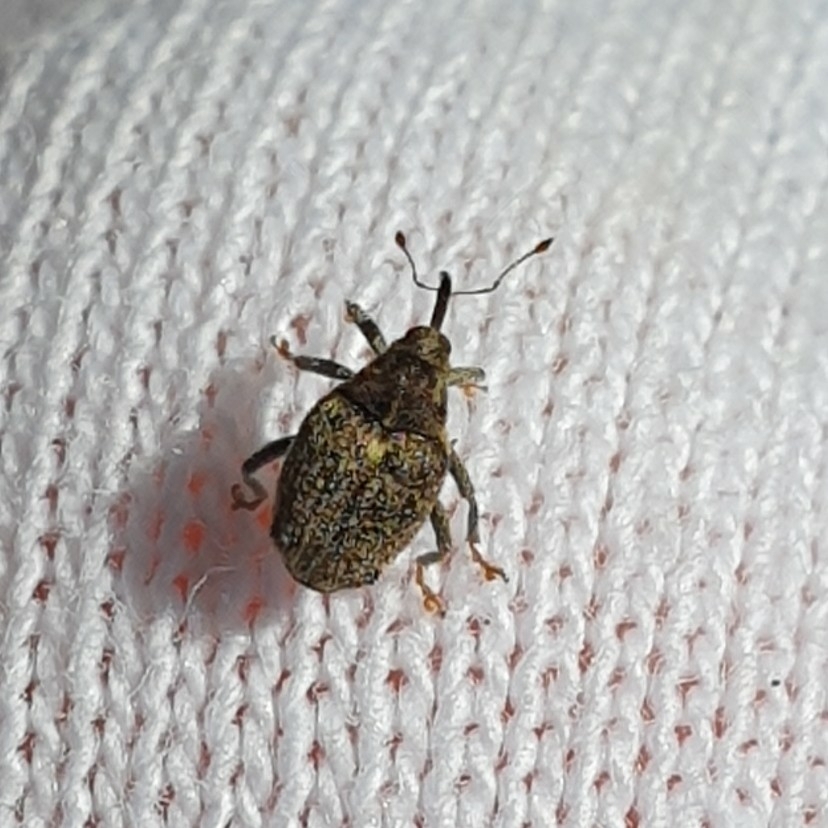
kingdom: Animalia
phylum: Arthropoda
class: Insecta
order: Coleoptera
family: Curculionidae
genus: Ceutorhynchus
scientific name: Ceutorhynchus pallidactylus
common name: Cabbage stem weavil
